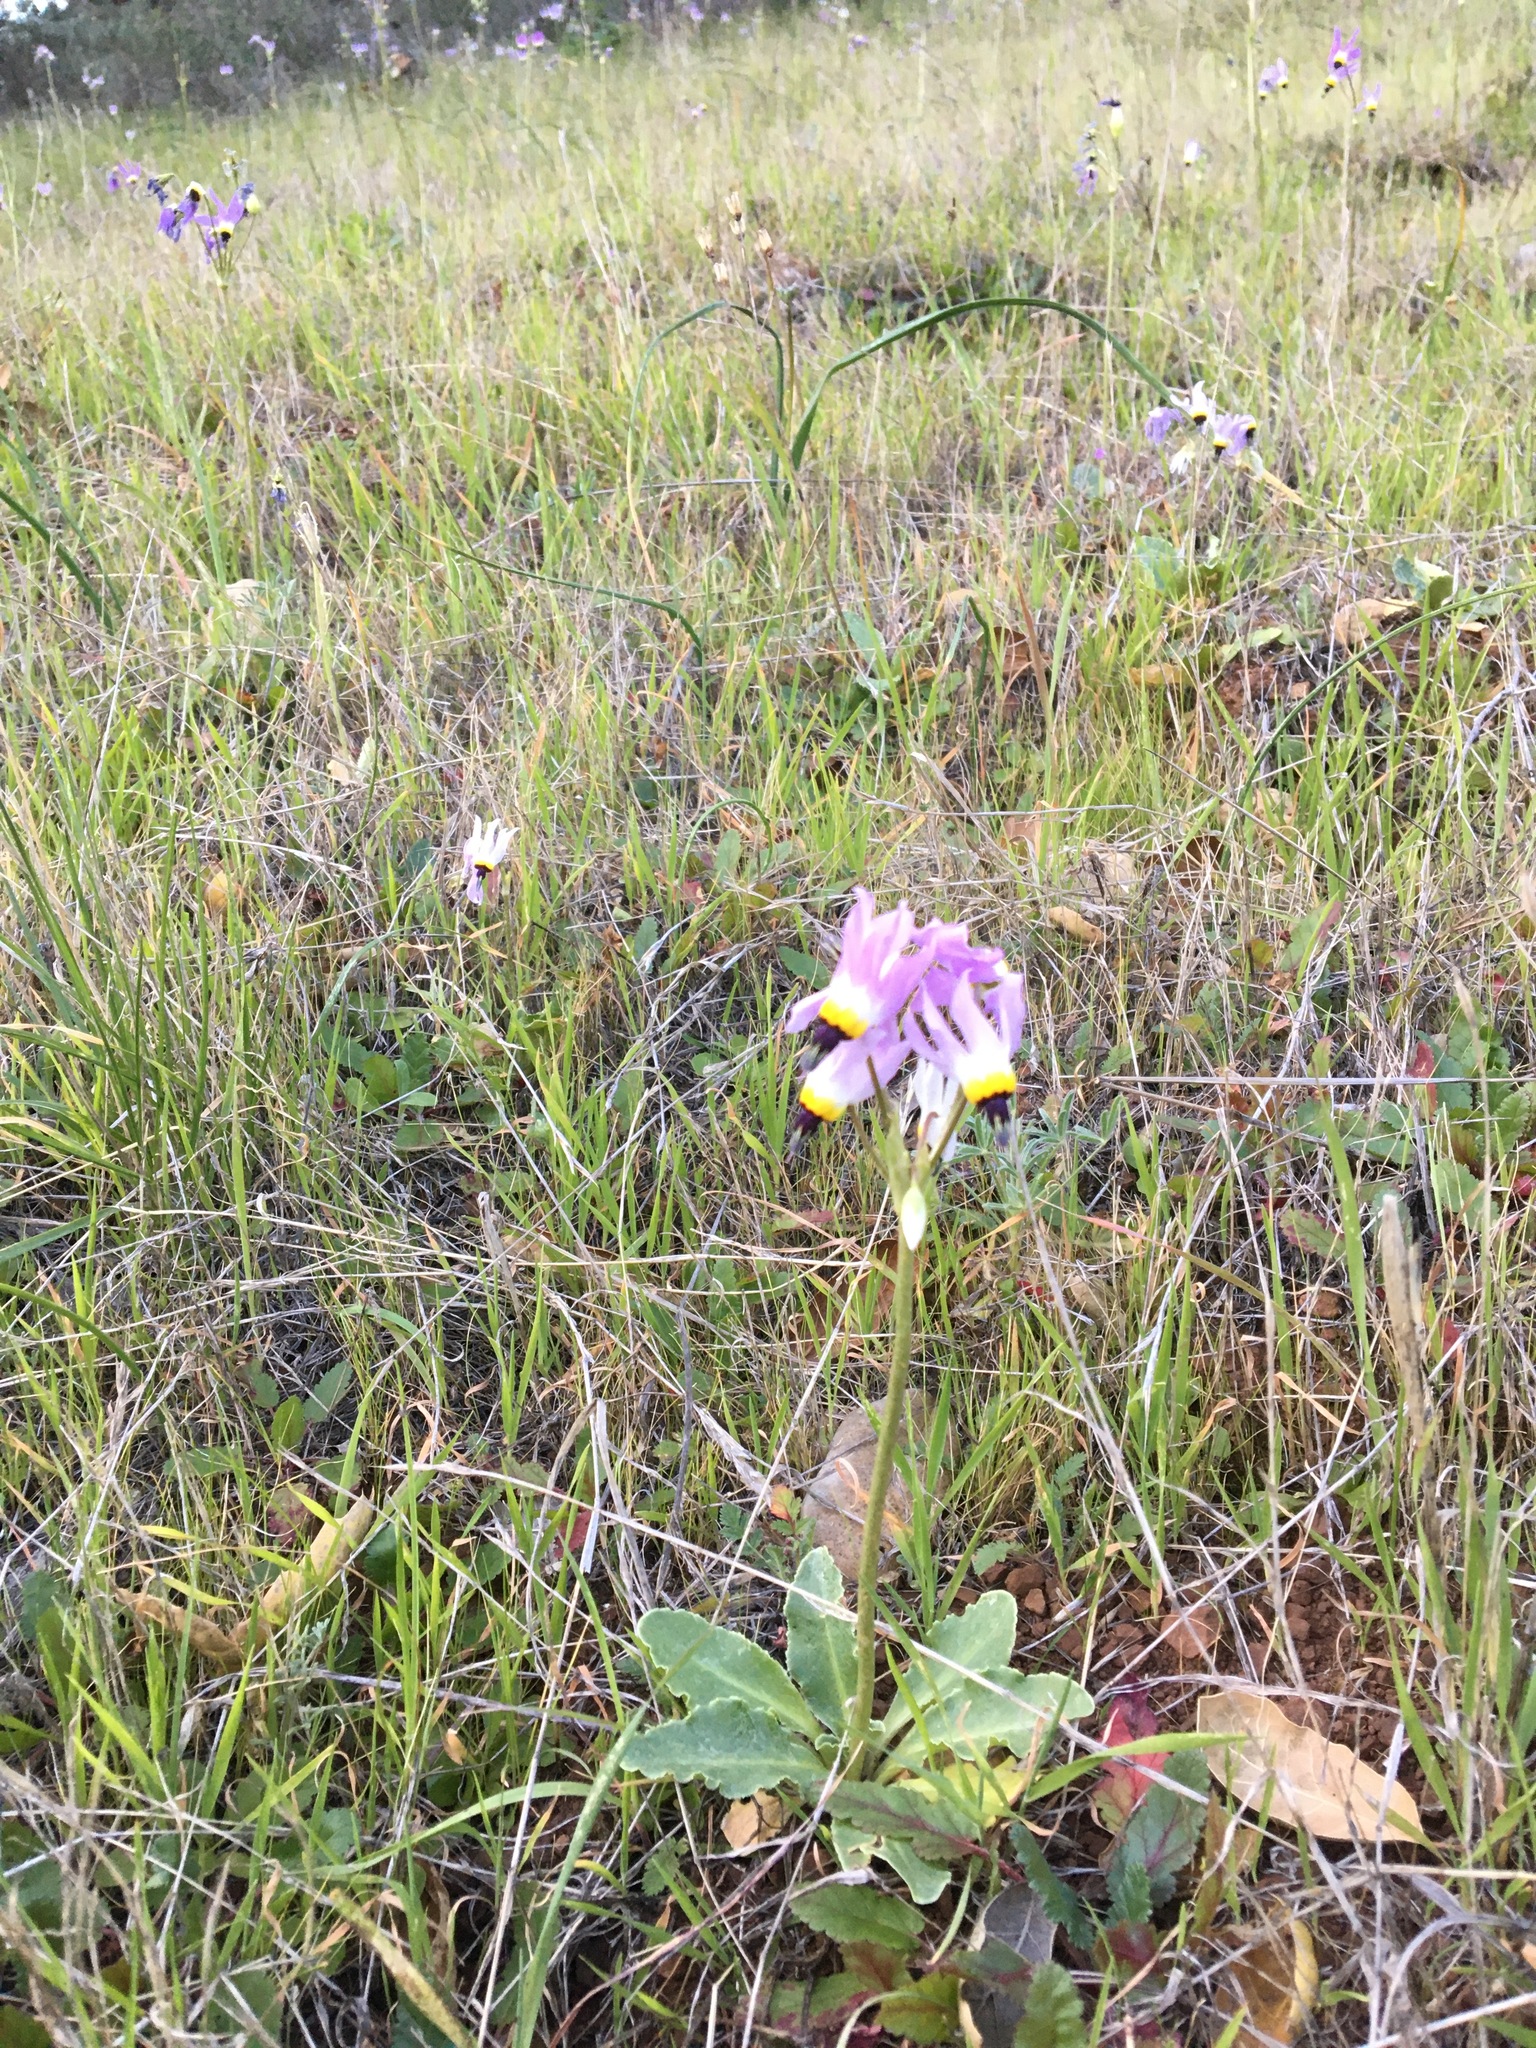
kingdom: Plantae
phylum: Tracheophyta
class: Magnoliopsida
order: Ericales
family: Primulaceae
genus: Dodecatheon
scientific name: Dodecatheon clevelandii
